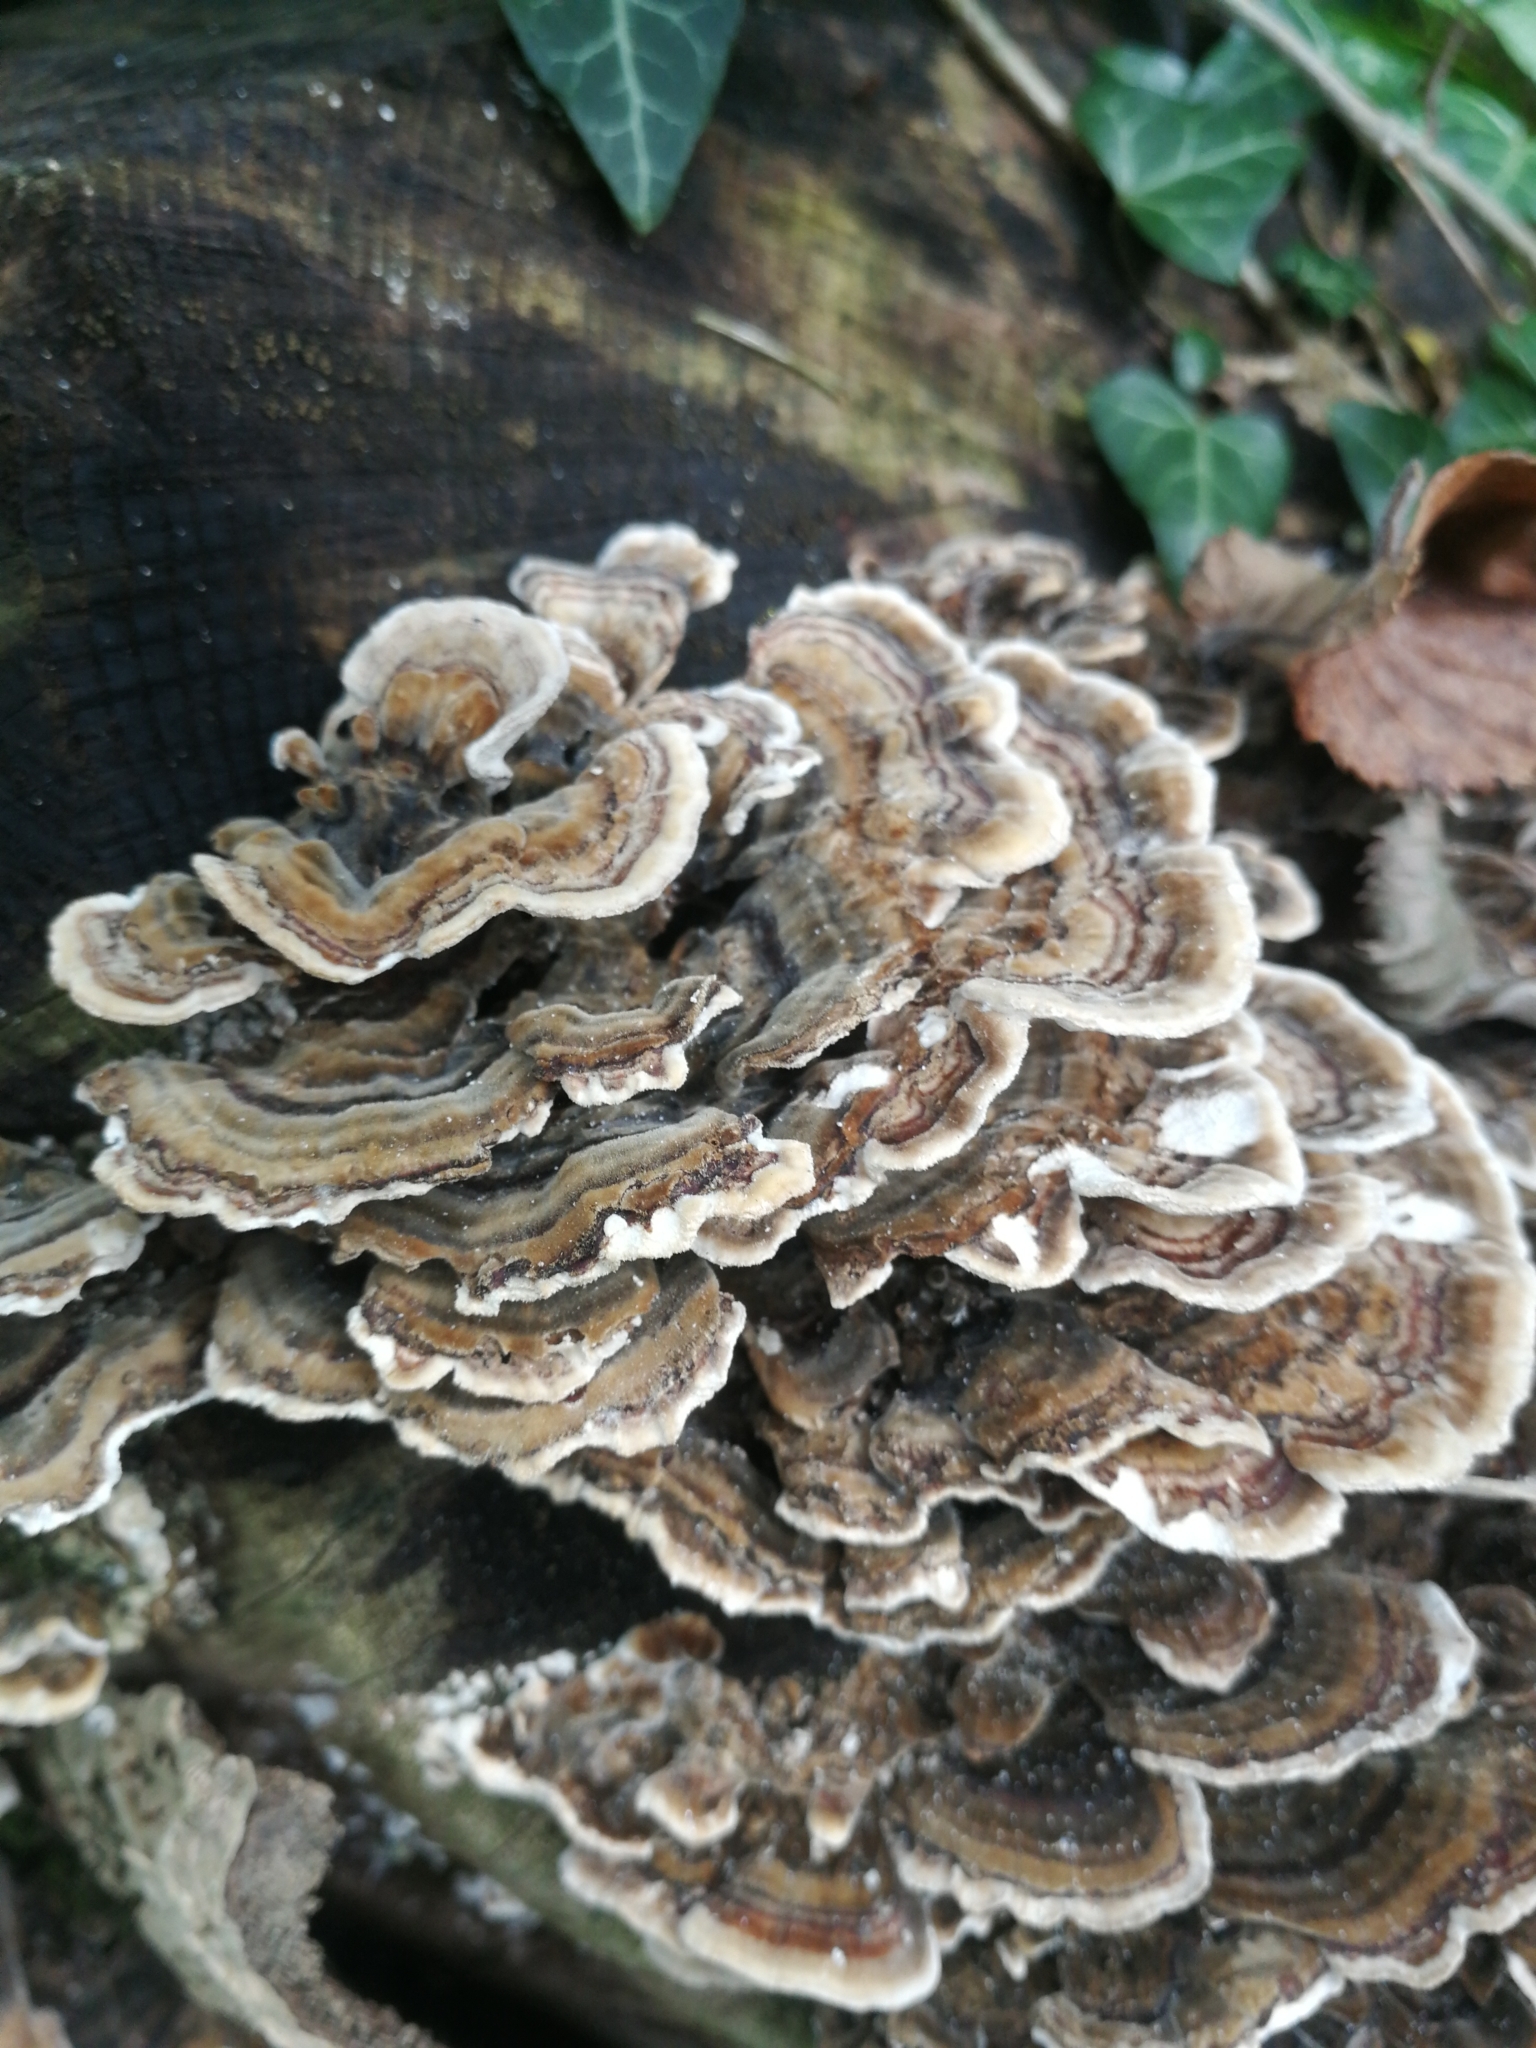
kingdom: Fungi
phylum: Basidiomycota
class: Agaricomycetes
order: Polyporales
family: Polyporaceae
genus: Trametes
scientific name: Trametes versicolor
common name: Turkeytail
